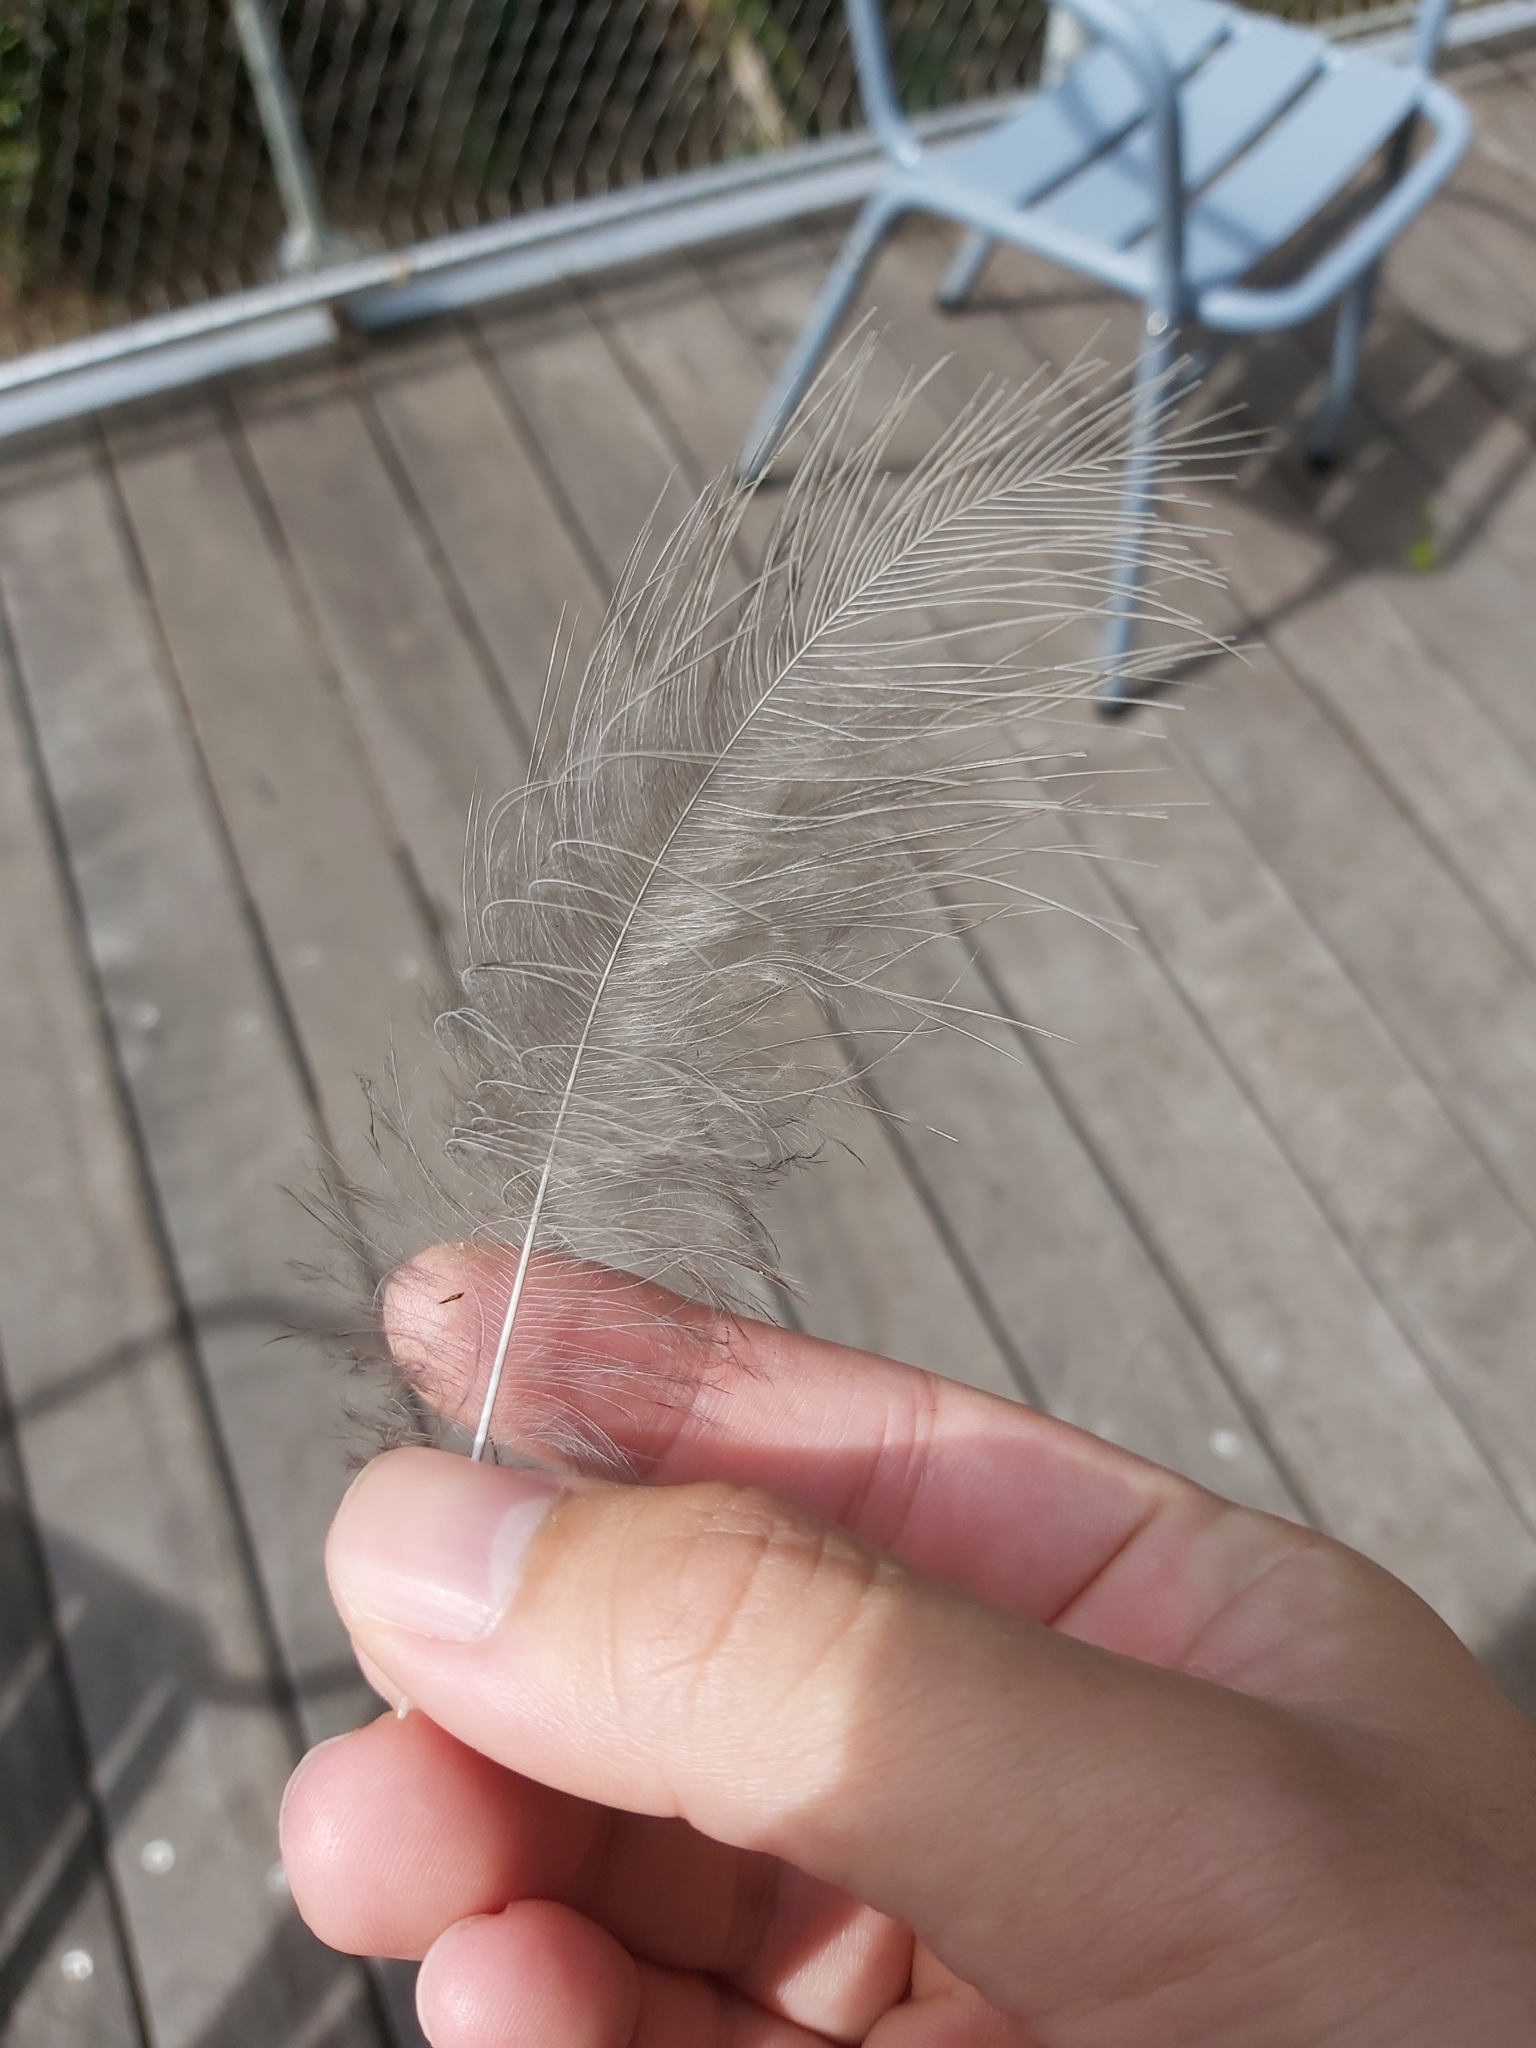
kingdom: Animalia
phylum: Chordata
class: Aves
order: Passeriformes
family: Menuridae
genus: Menura
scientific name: Menura novaehollandiae
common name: Superb lyrebird
